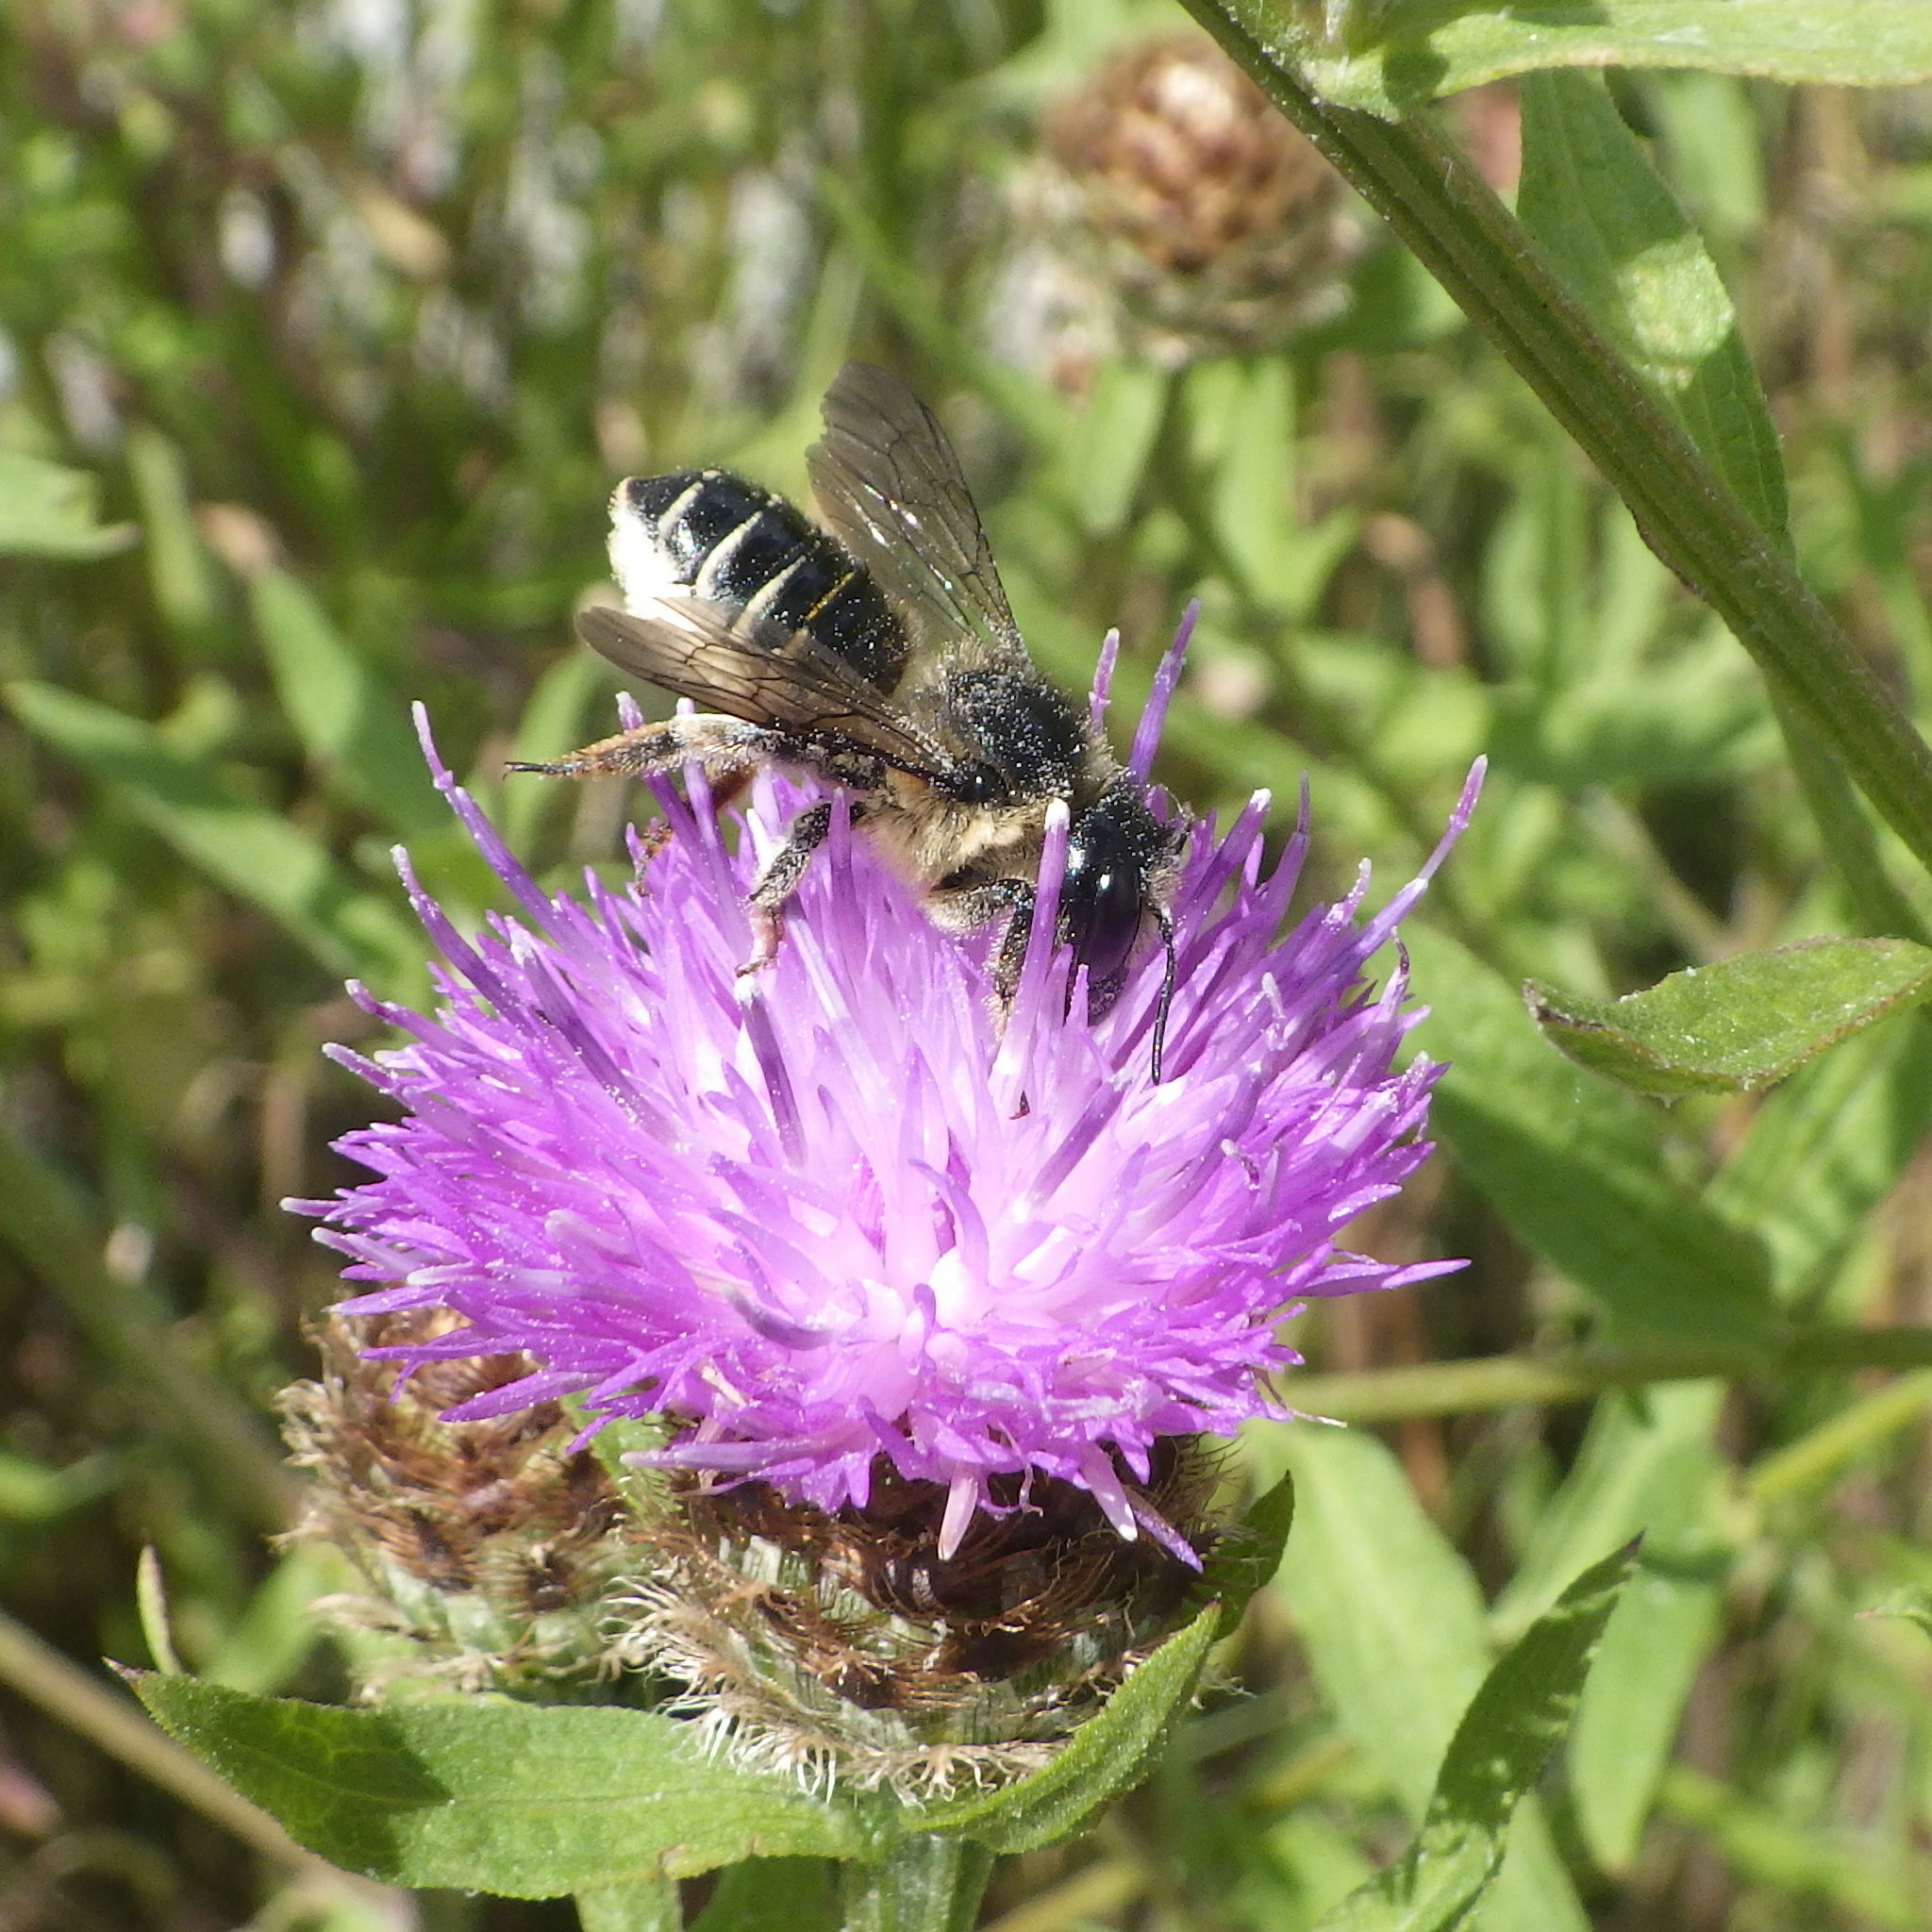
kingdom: Animalia
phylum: Arthropoda
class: Insecta
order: Hymenoptera
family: Megachilidae
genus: Megachile
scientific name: Megachile inermis
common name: Unarmed leafcutter bee
